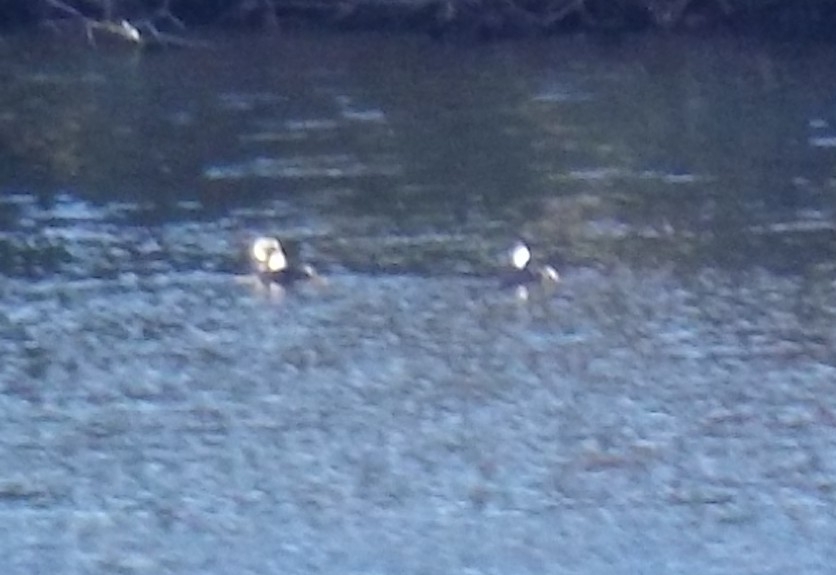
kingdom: Animalia
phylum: Chordata
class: Aves
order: Anseriformes
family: Anatidae
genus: Lophodytes
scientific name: Lophodytes cucullatus
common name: Hooded merganser
